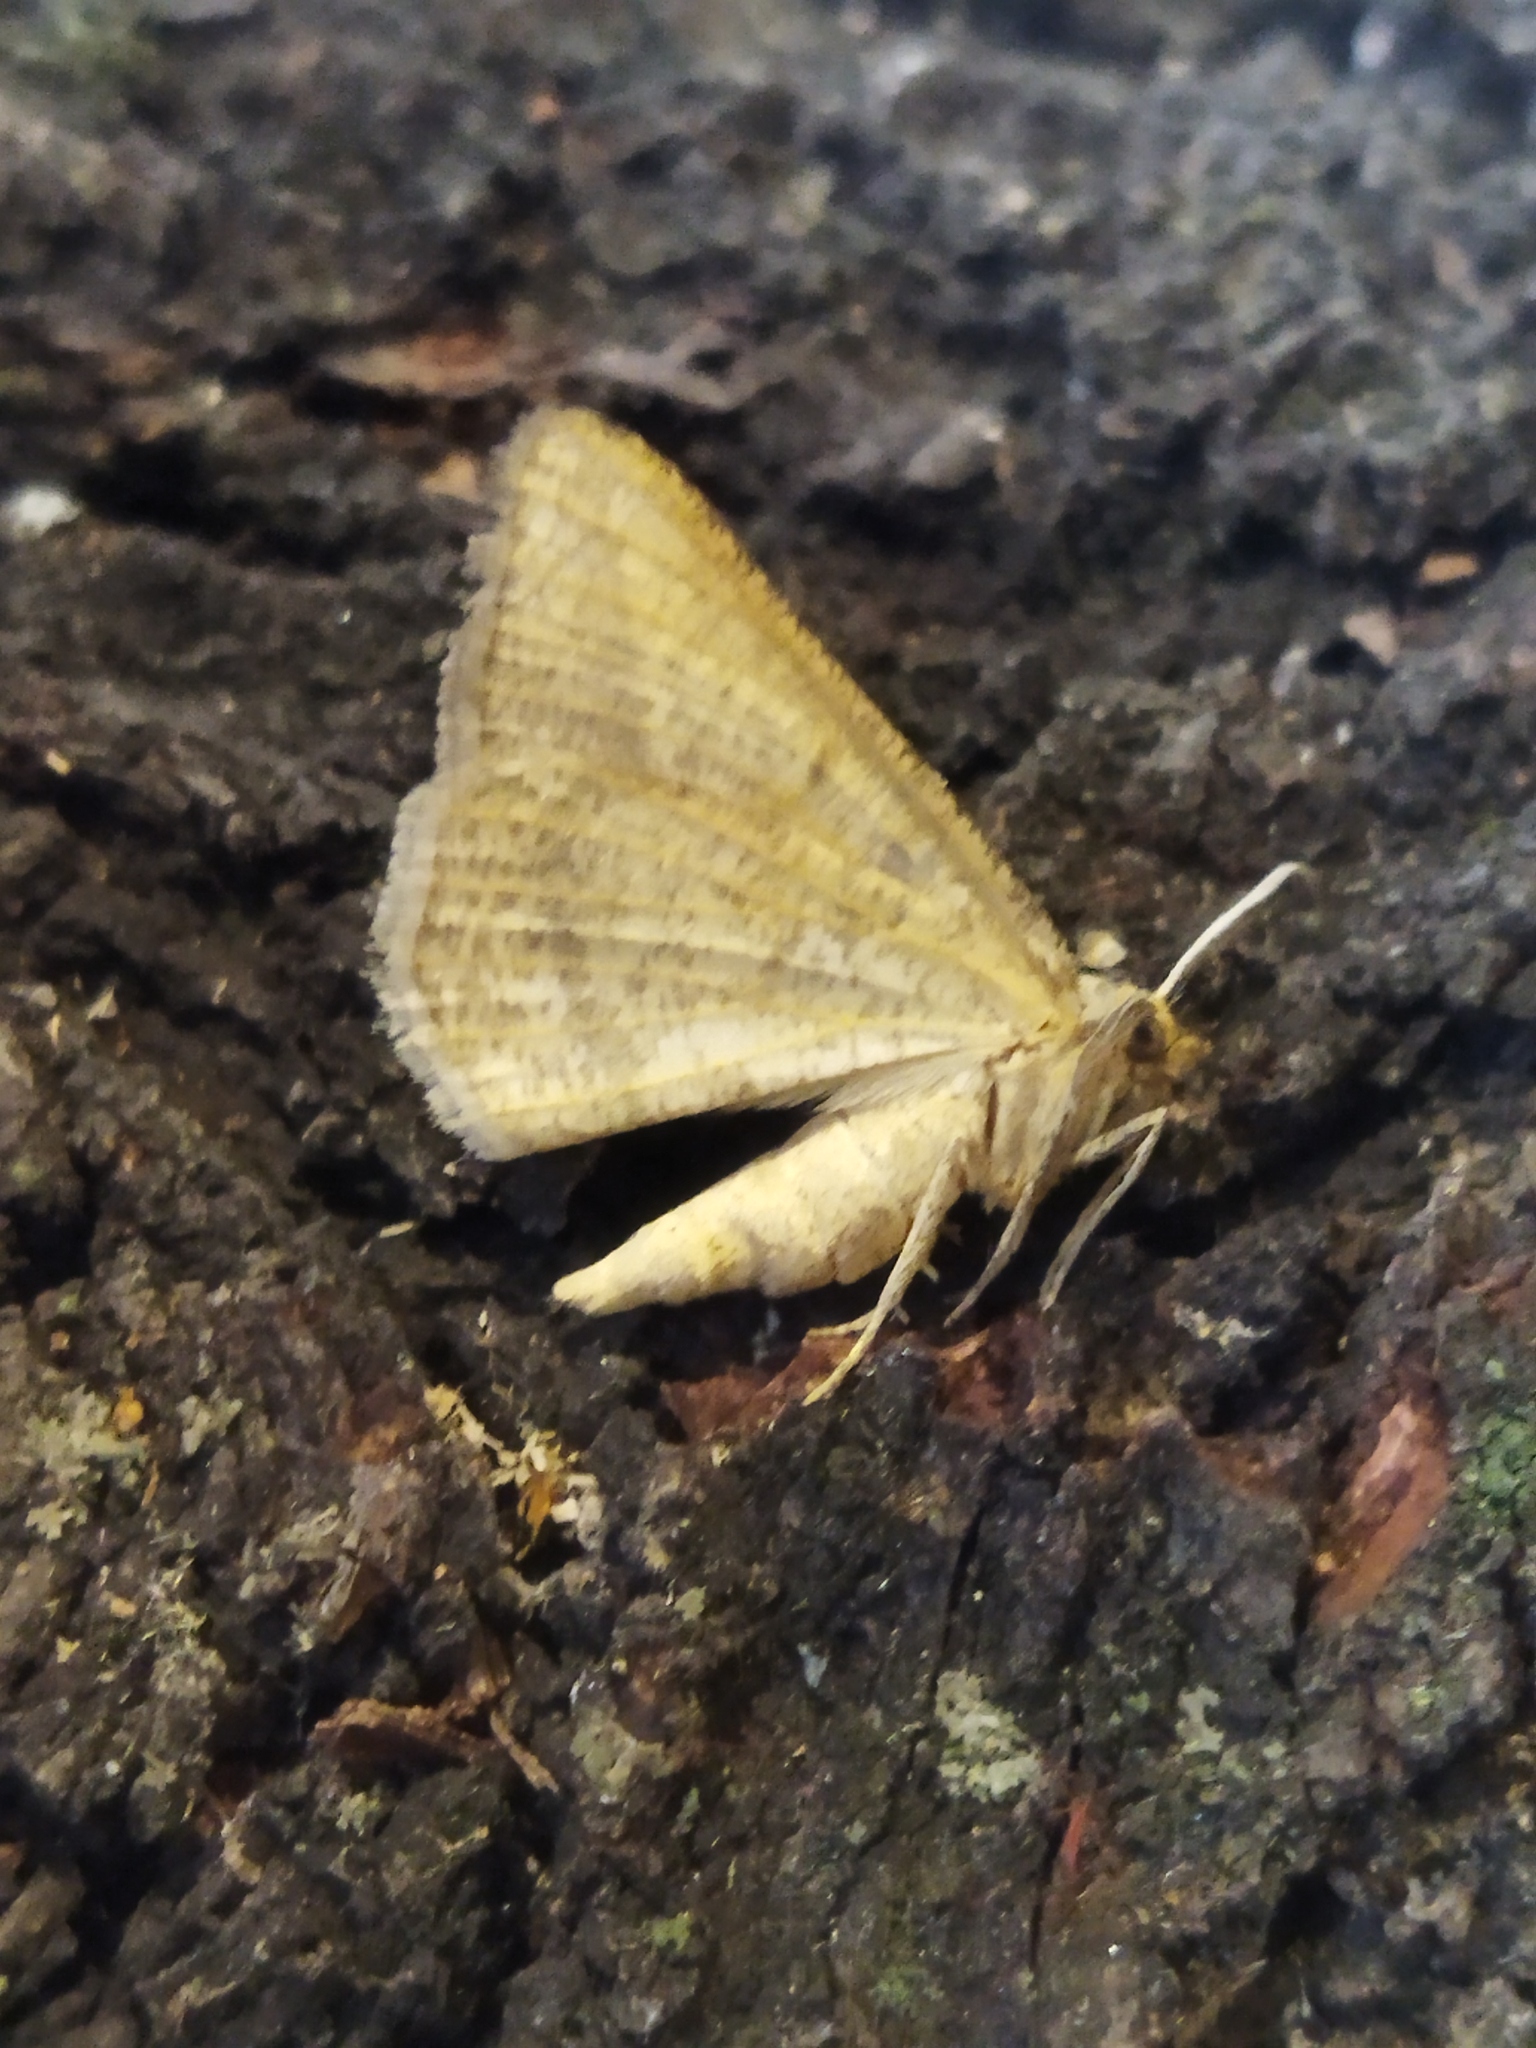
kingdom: Animalia
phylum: Arthropoda
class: Insecta
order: Lepidoptera
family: Geometridae
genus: Tephrina
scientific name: Tephrina arenacearia
